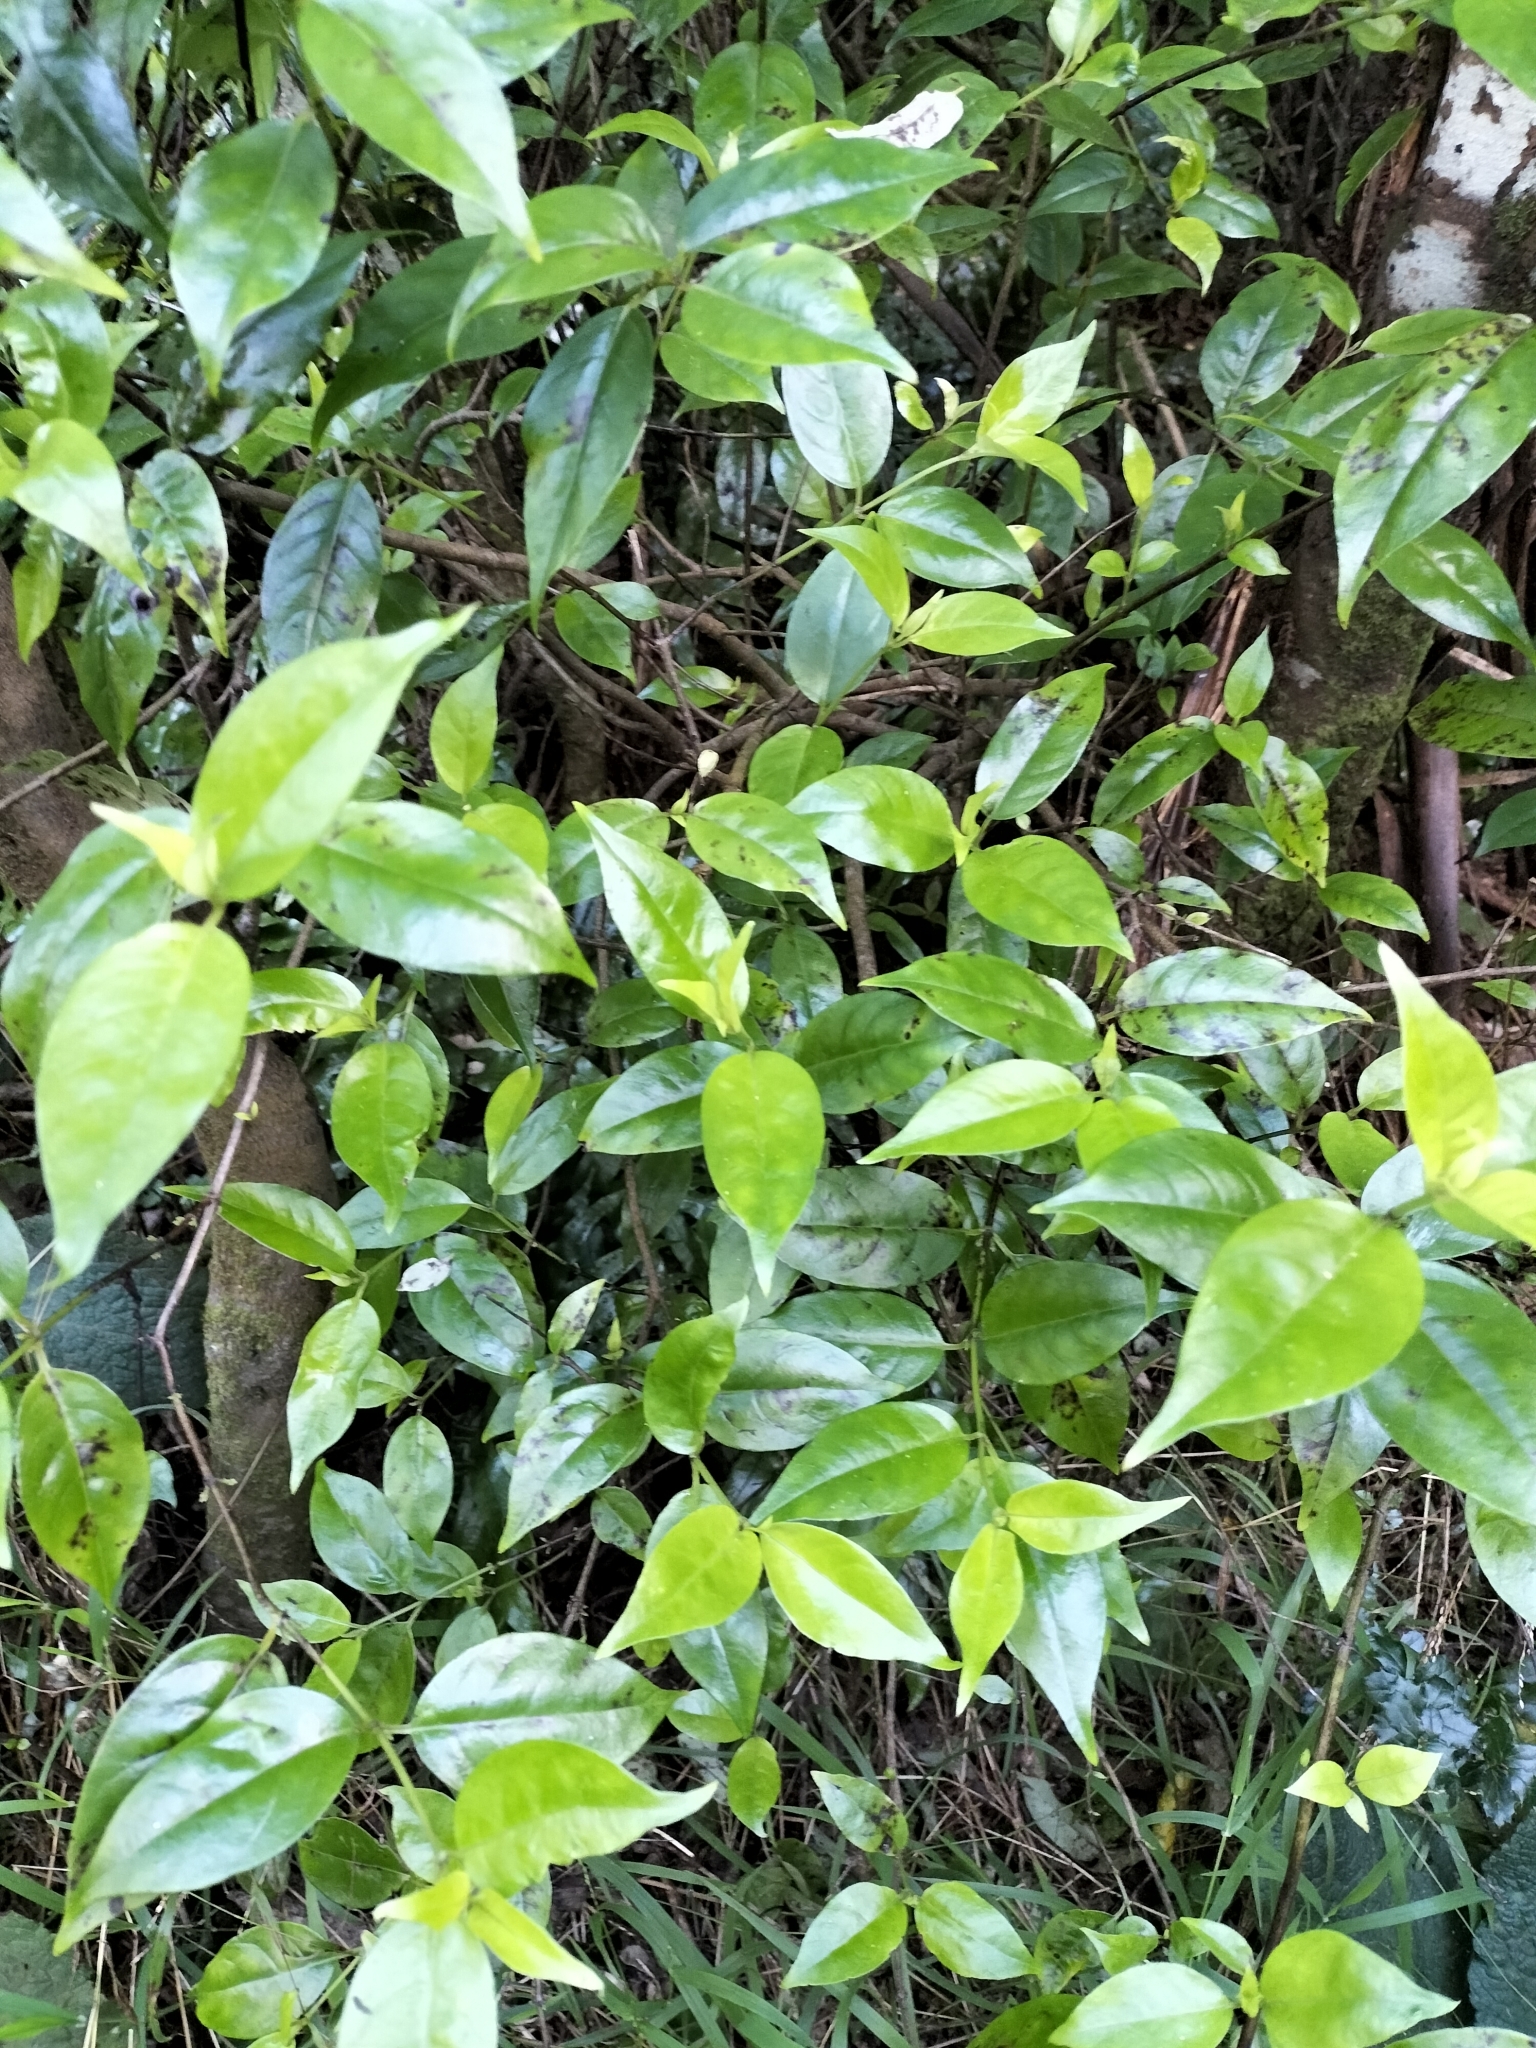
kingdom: Plantae
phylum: Tracheophyta
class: Magnoliopsida
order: Gentianales
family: Loganiaceae
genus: Geniostoma
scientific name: Geniostoma ligustrifolium
